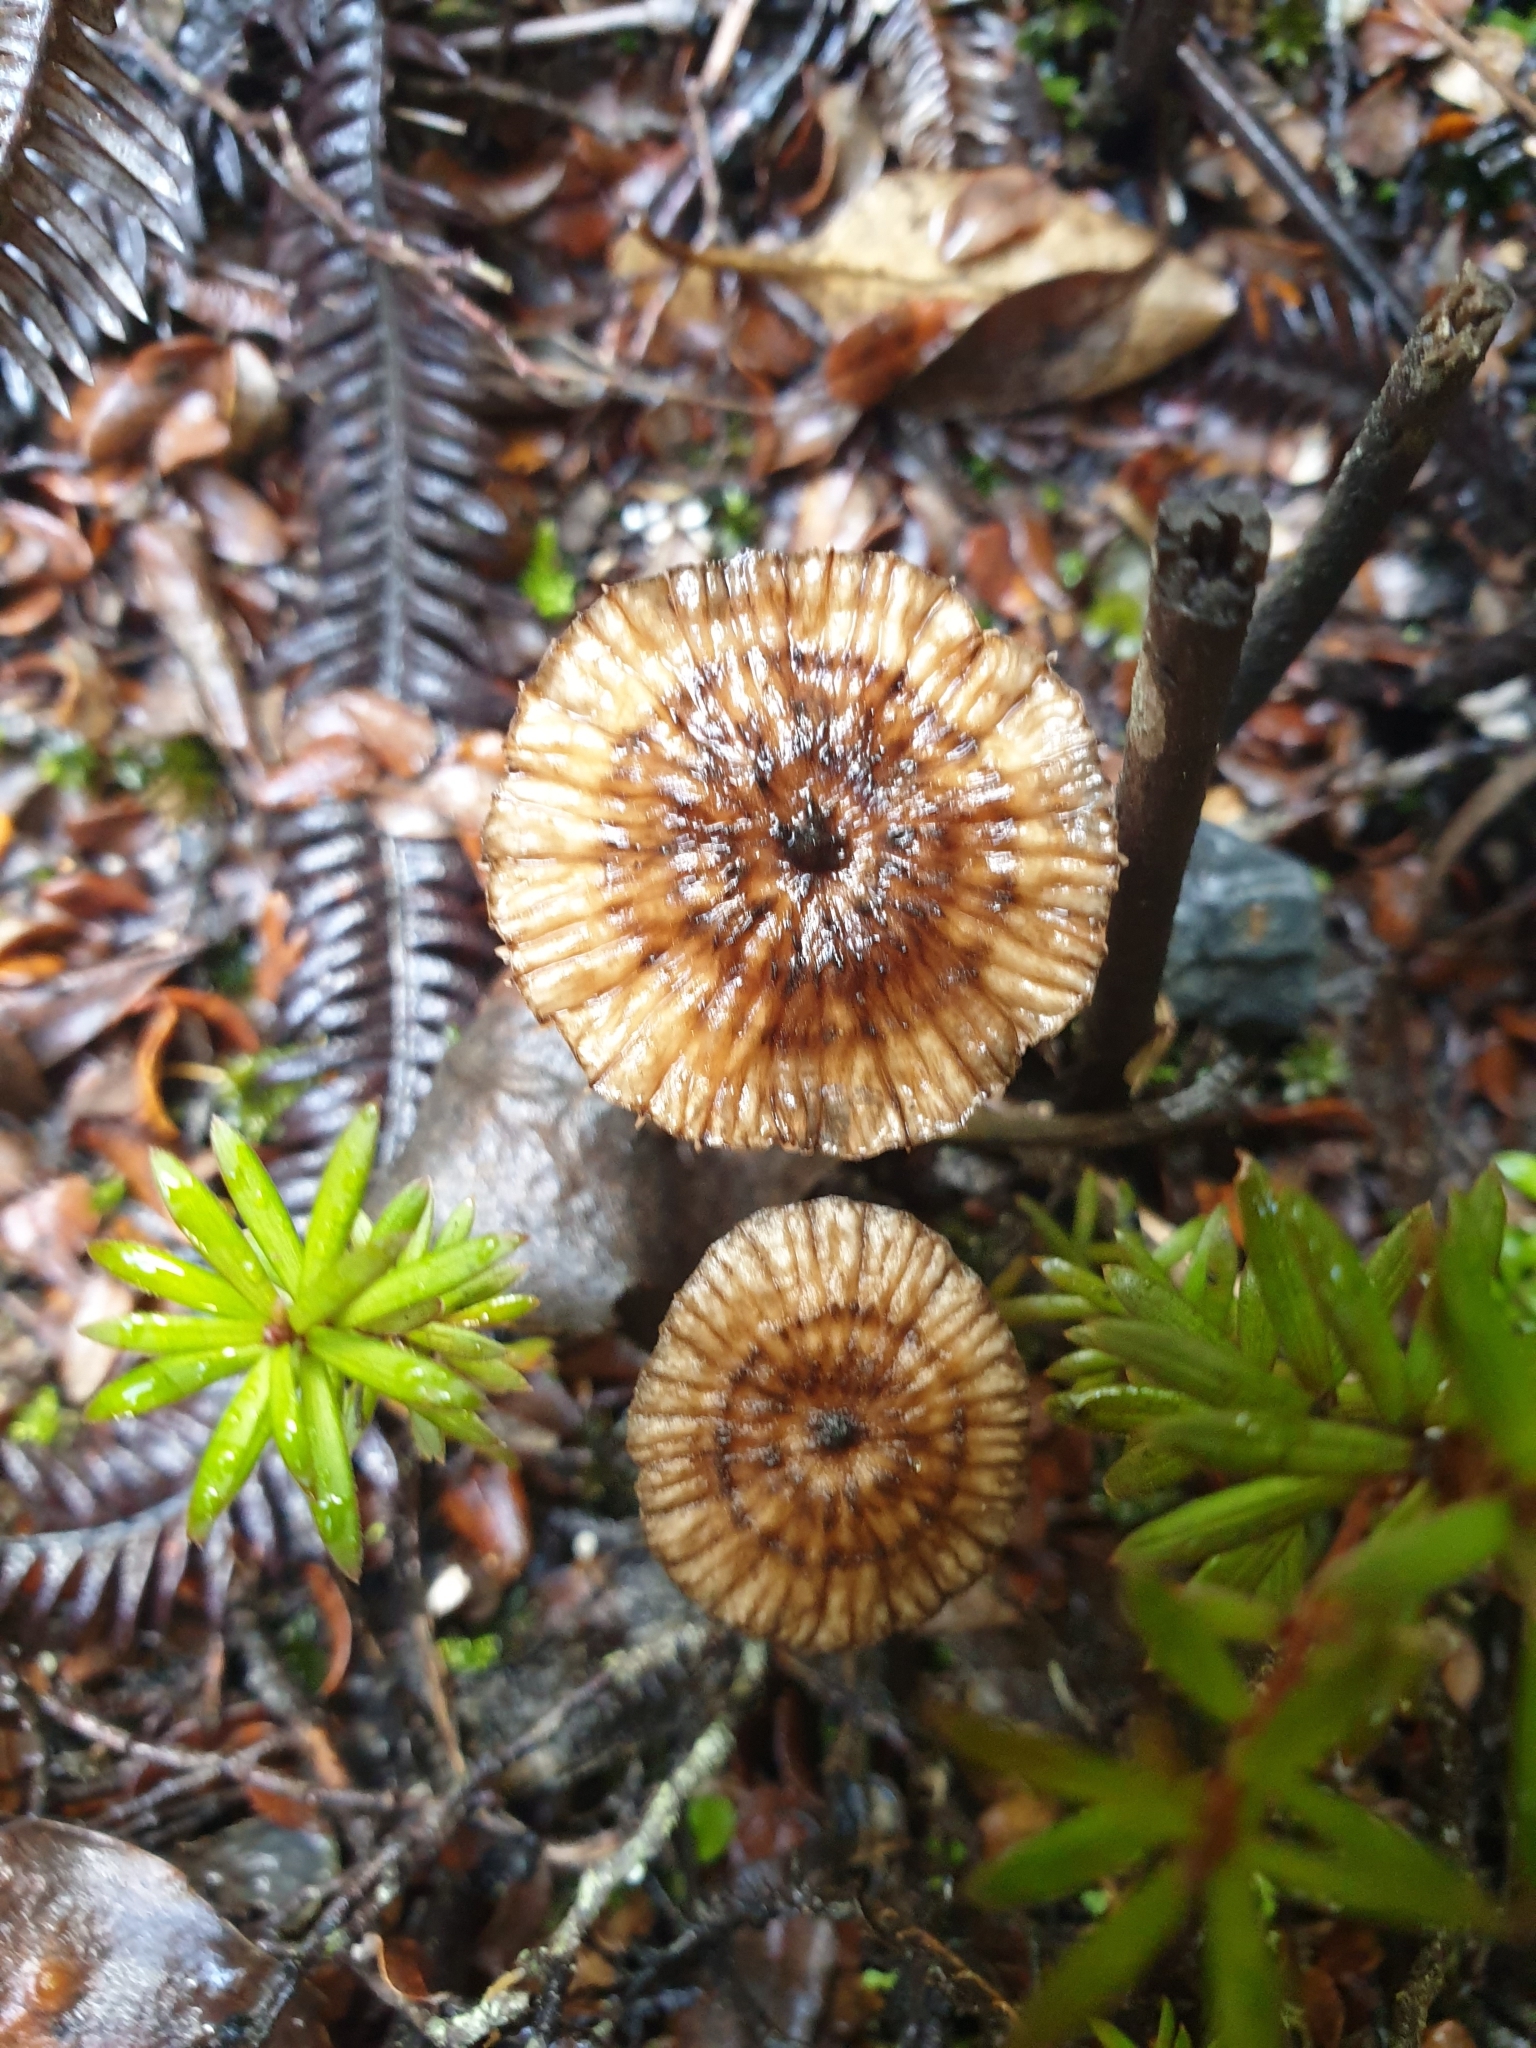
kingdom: Fungi
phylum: Basidiomycota
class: Agaricomycetes
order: Agaricales
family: Hydnangiaceae
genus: Laccaria
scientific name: Laccaria fibrillosa
